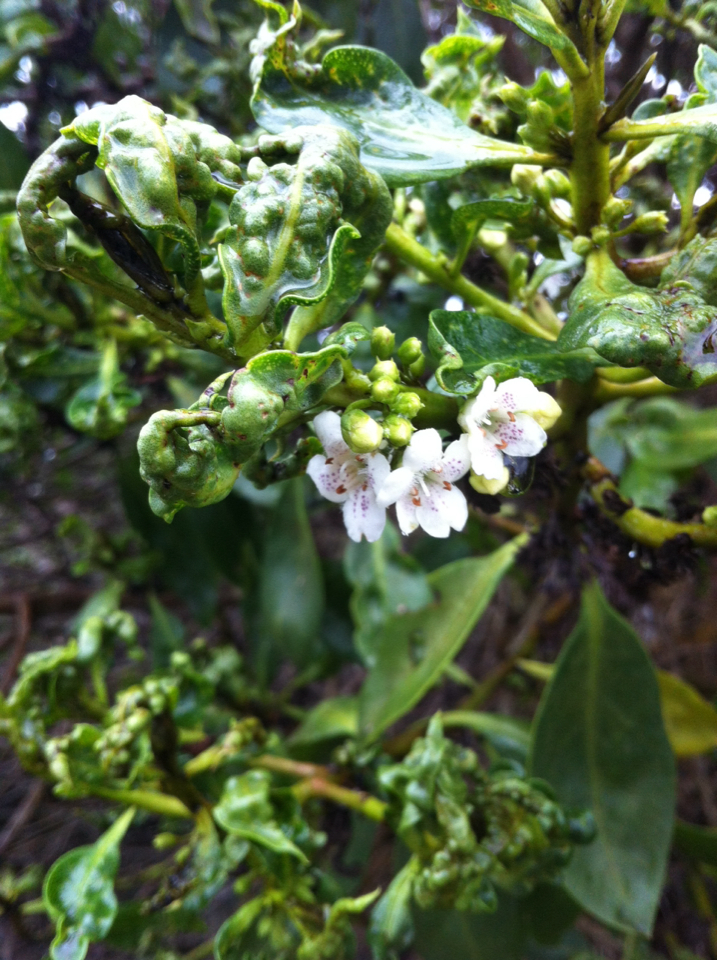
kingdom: Plantae
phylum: Tracheophyta
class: Magnoliopsida
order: Lamiales
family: Scrophulariaceae
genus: Myoporum
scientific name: Myoporum laetum
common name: Ngaio tree
